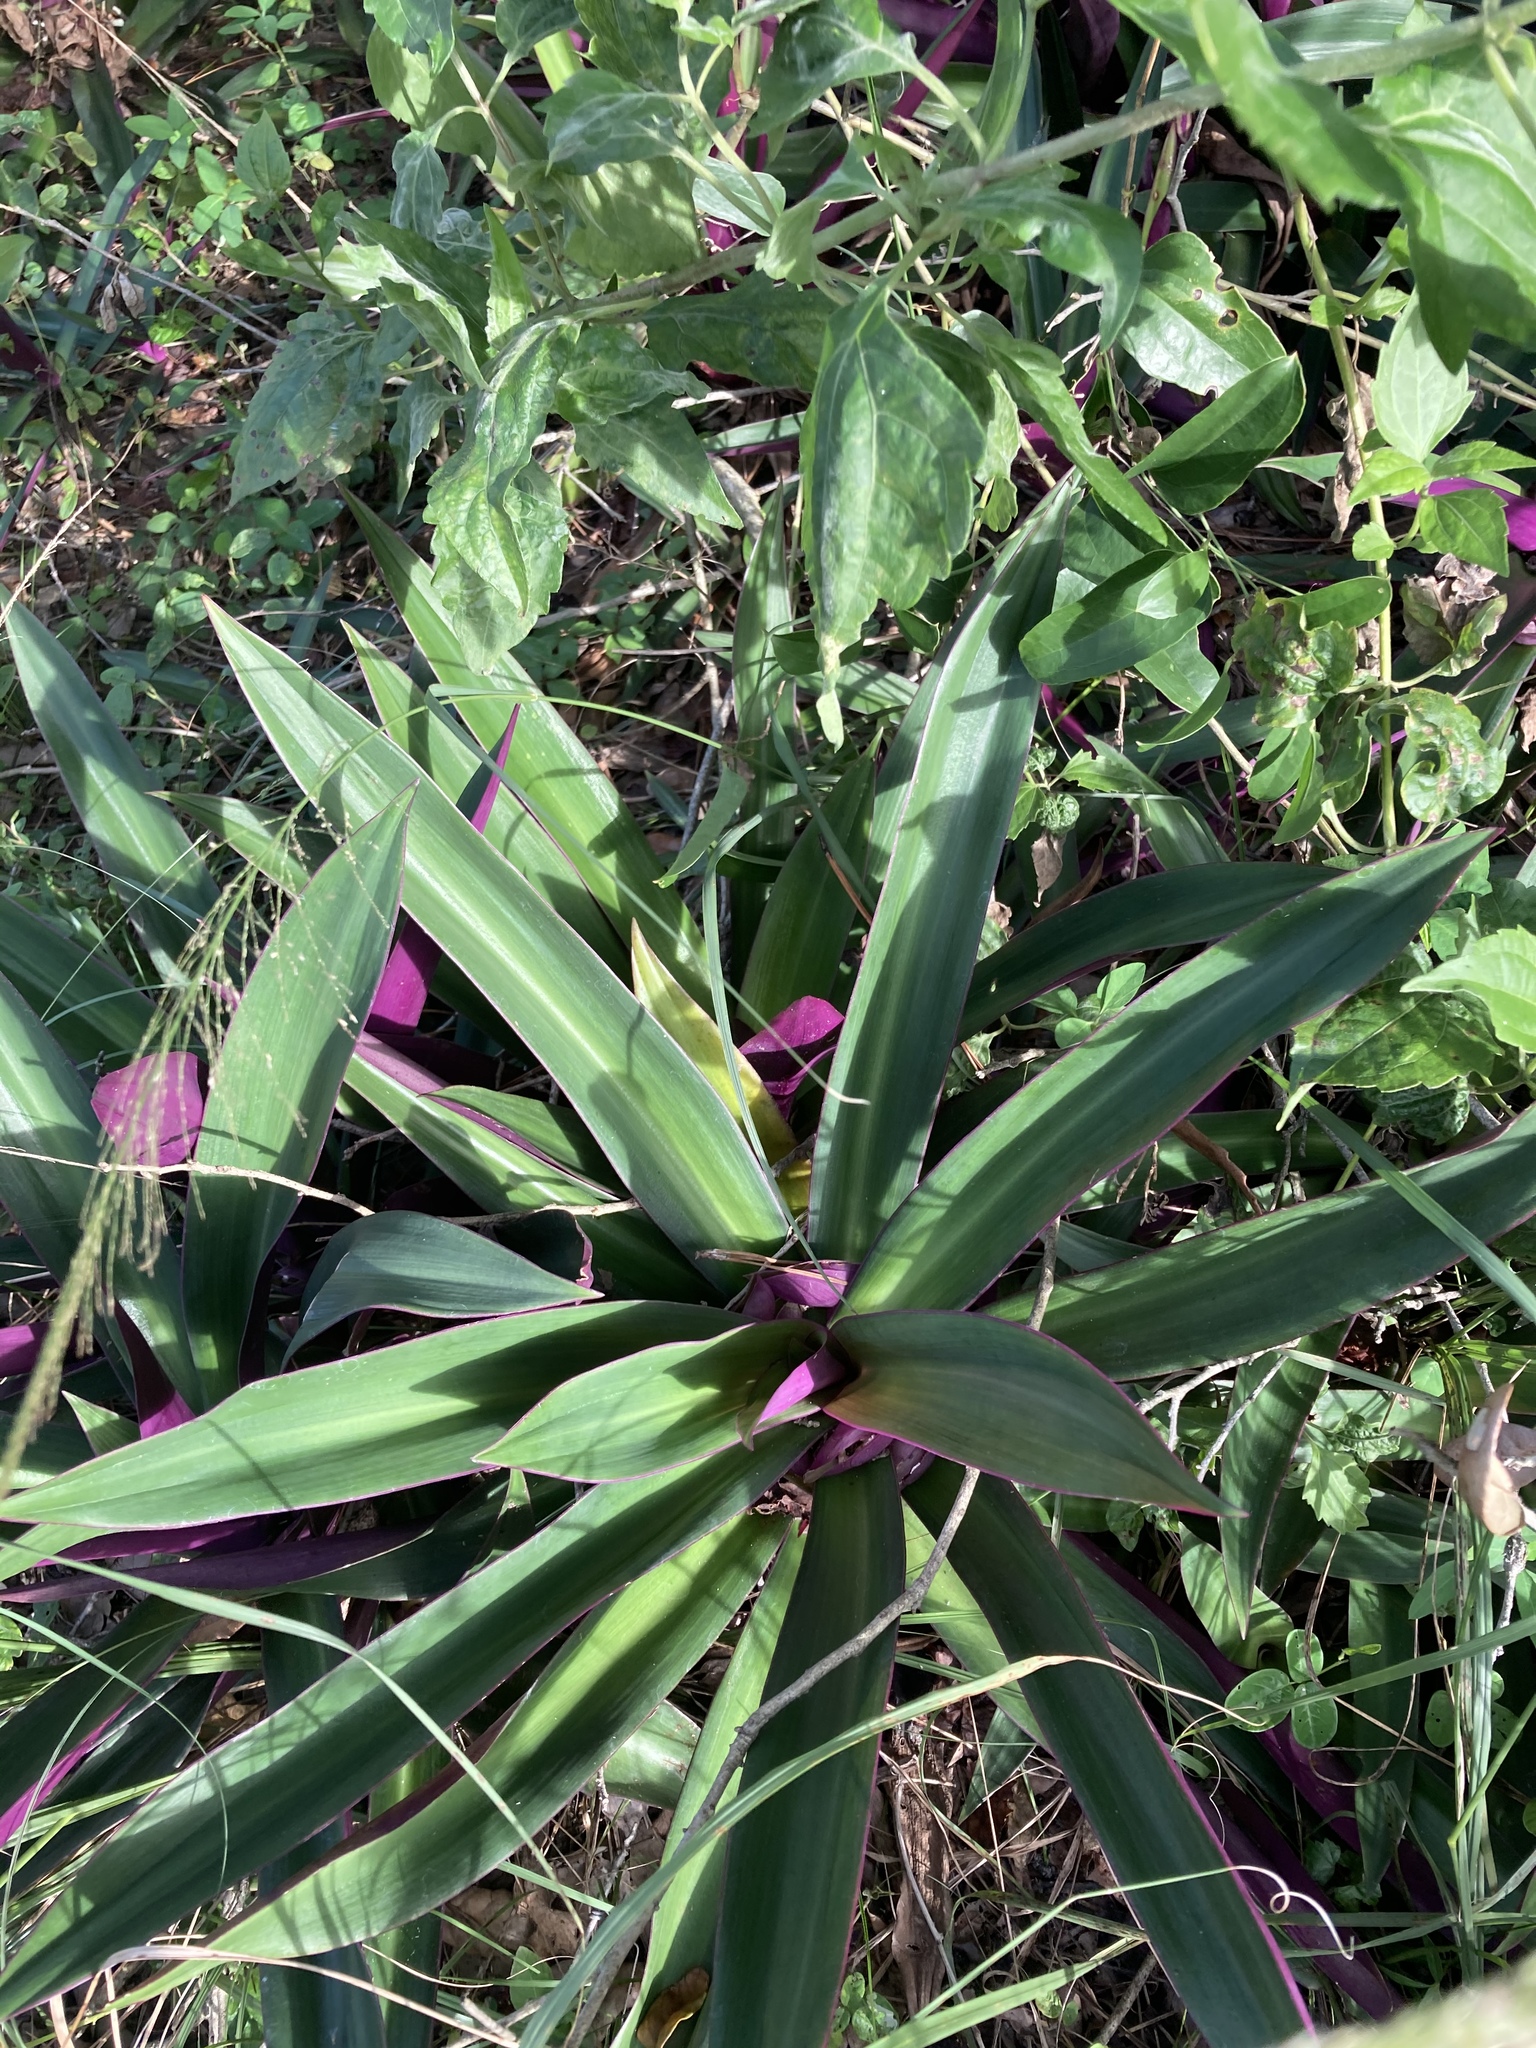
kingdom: Plantae
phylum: Tracheophyta
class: Liliopsida
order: Commelinales
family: Commelinaceae
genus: Tradescantia
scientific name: Tradescantia spathacea
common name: Boatlily
